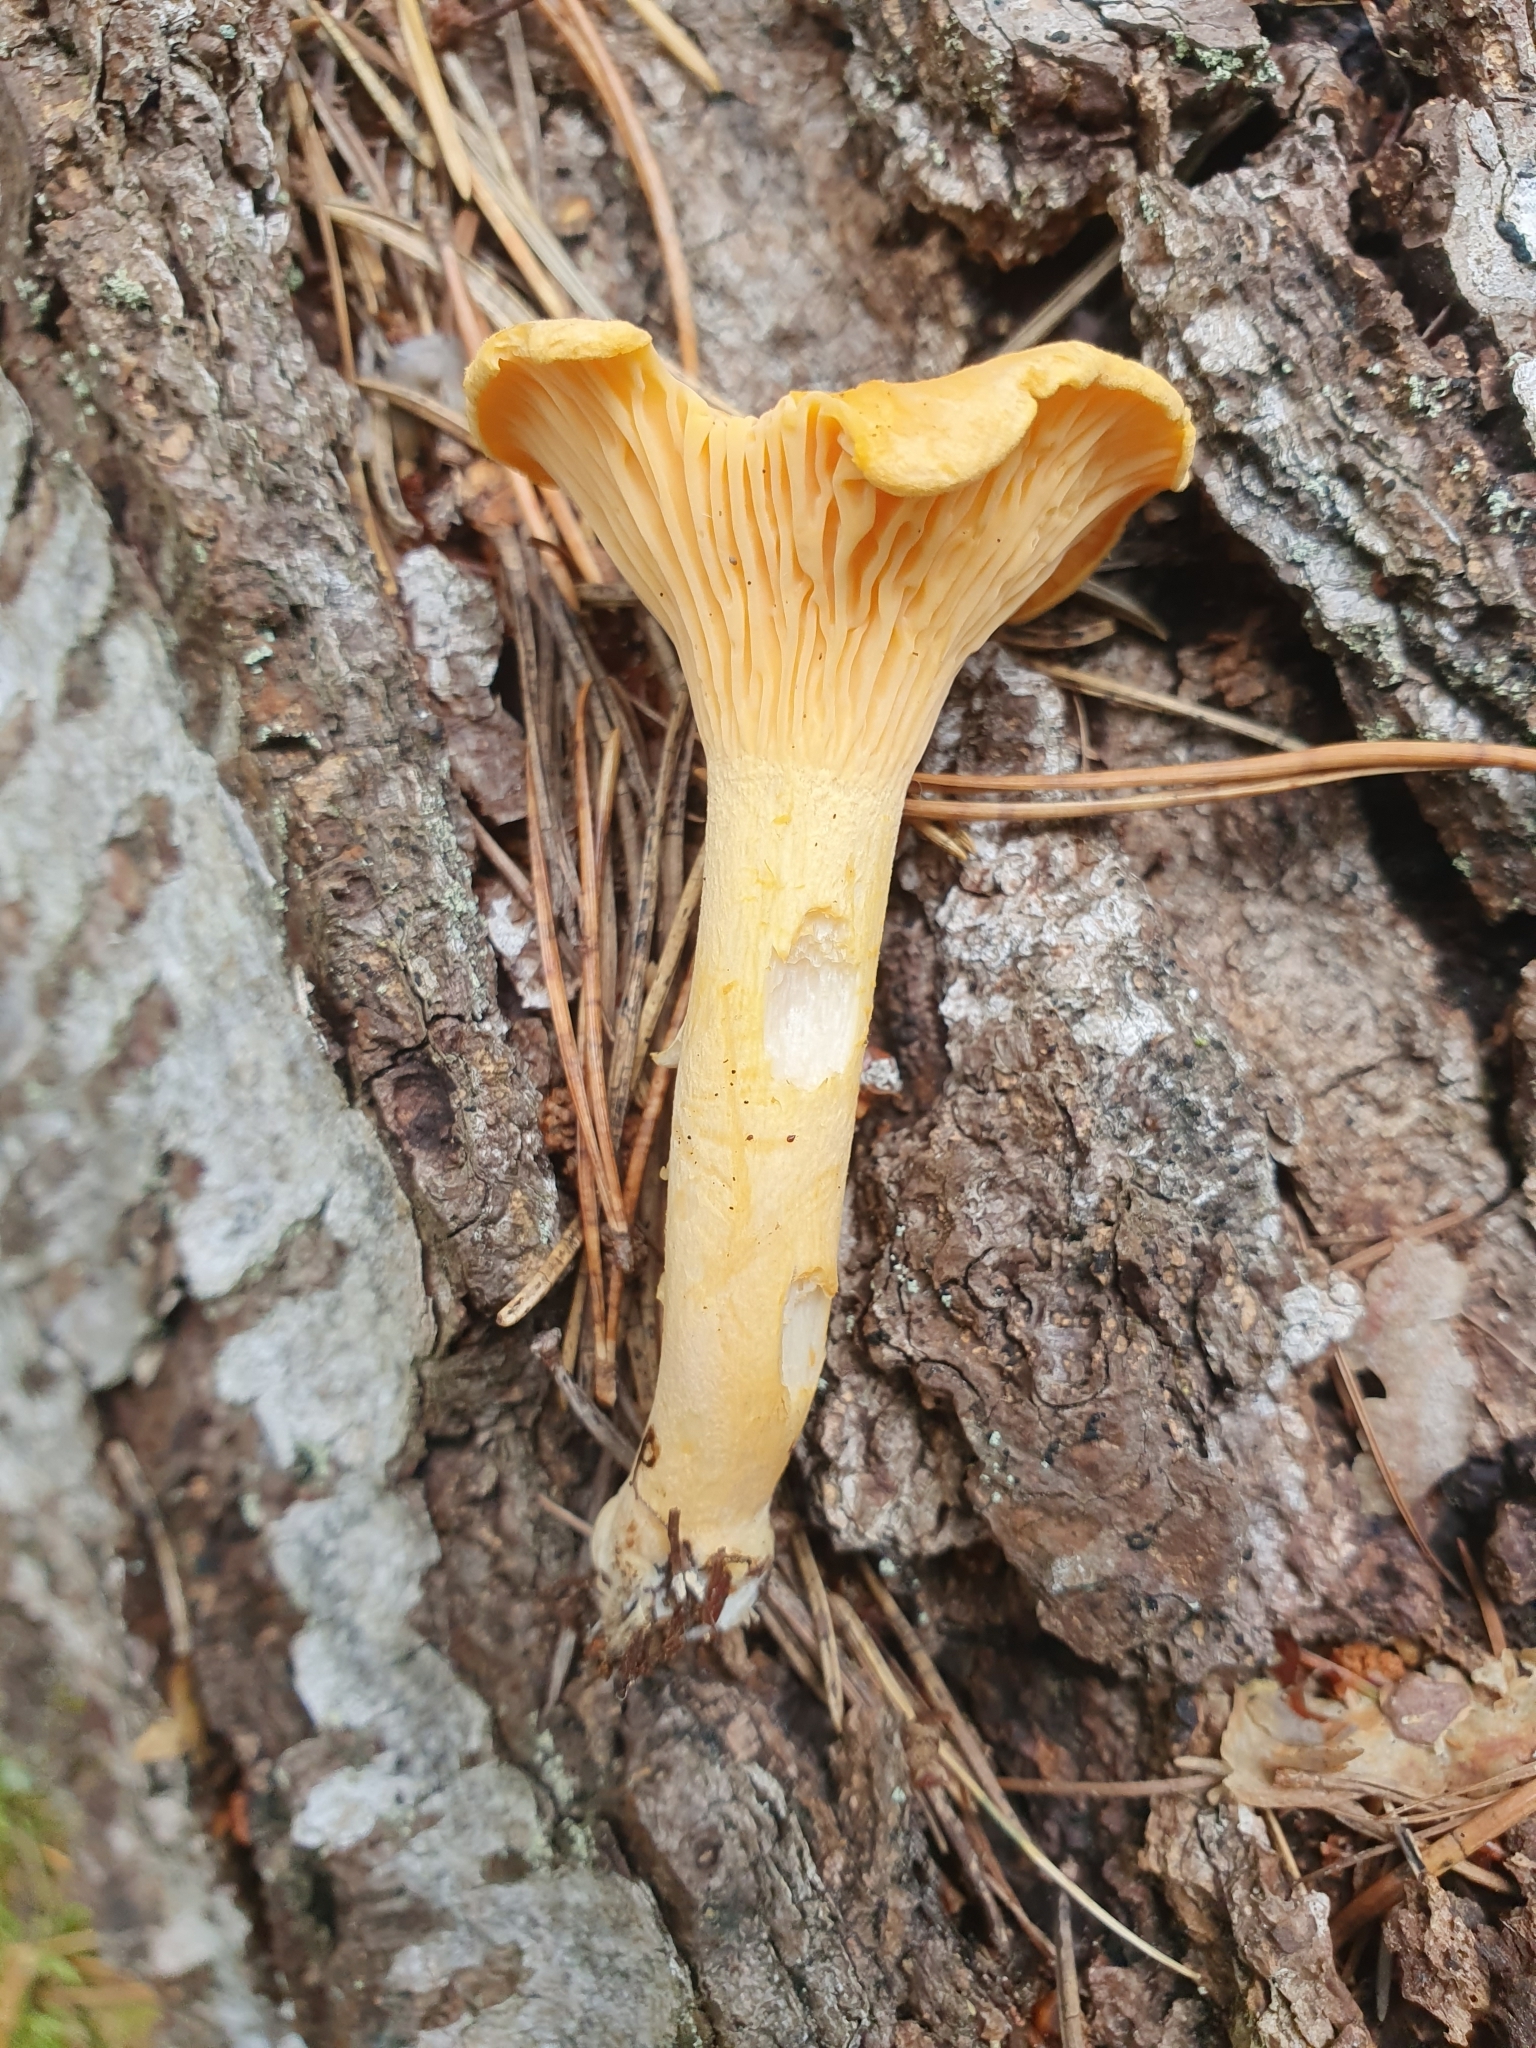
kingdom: Fungi
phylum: Basidiomycota
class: Agaricomycetes
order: Cantharellales
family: Hydnaceae
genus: Cantharellus
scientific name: Cantharellus cibarius
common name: Chanterelle
